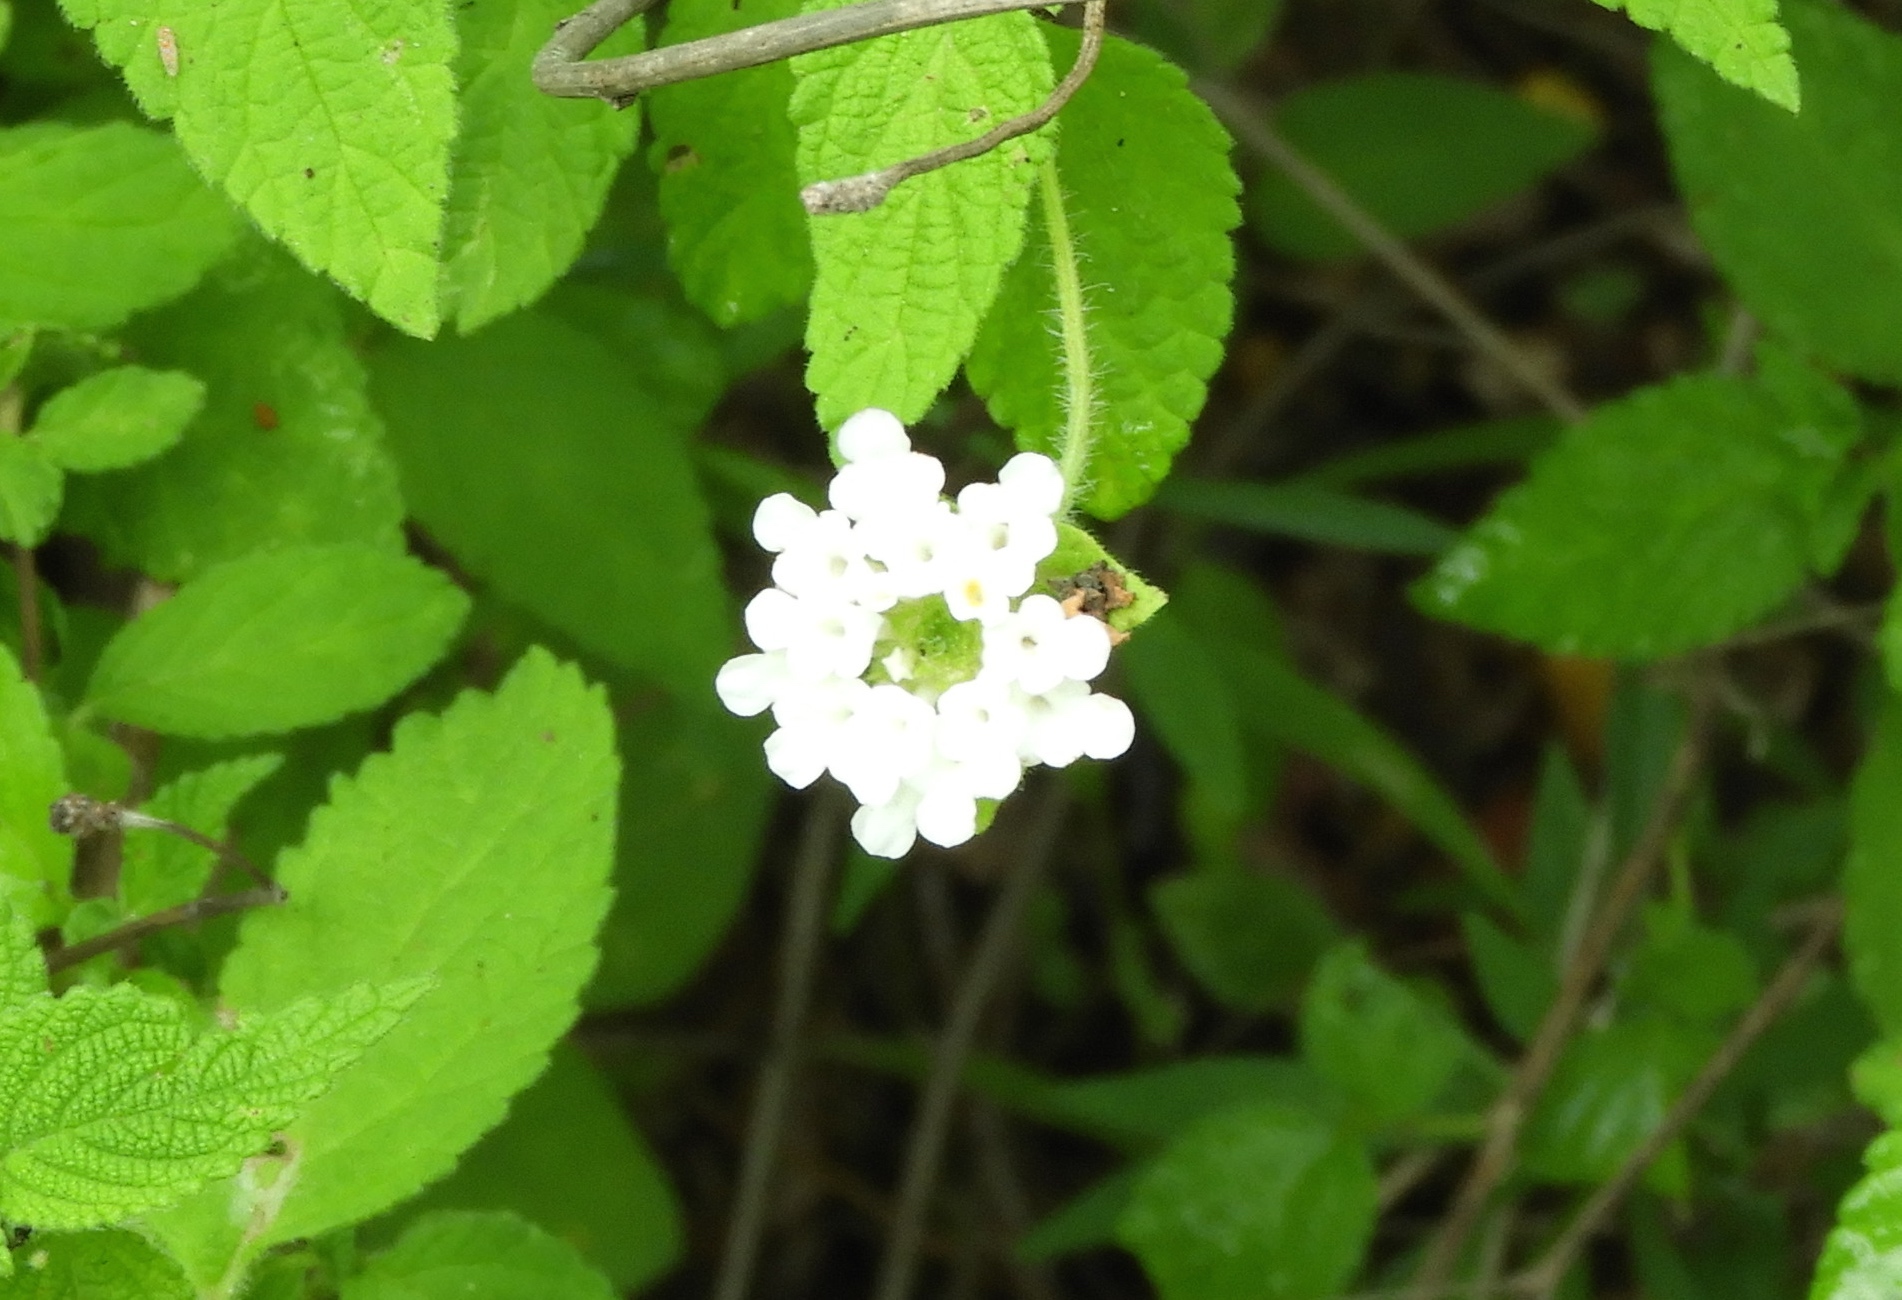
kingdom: Plantae
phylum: Tracheophyta
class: Magnoliopsida
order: Lamiales
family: Verbenaceae
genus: Lantana
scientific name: Lantana velutina
